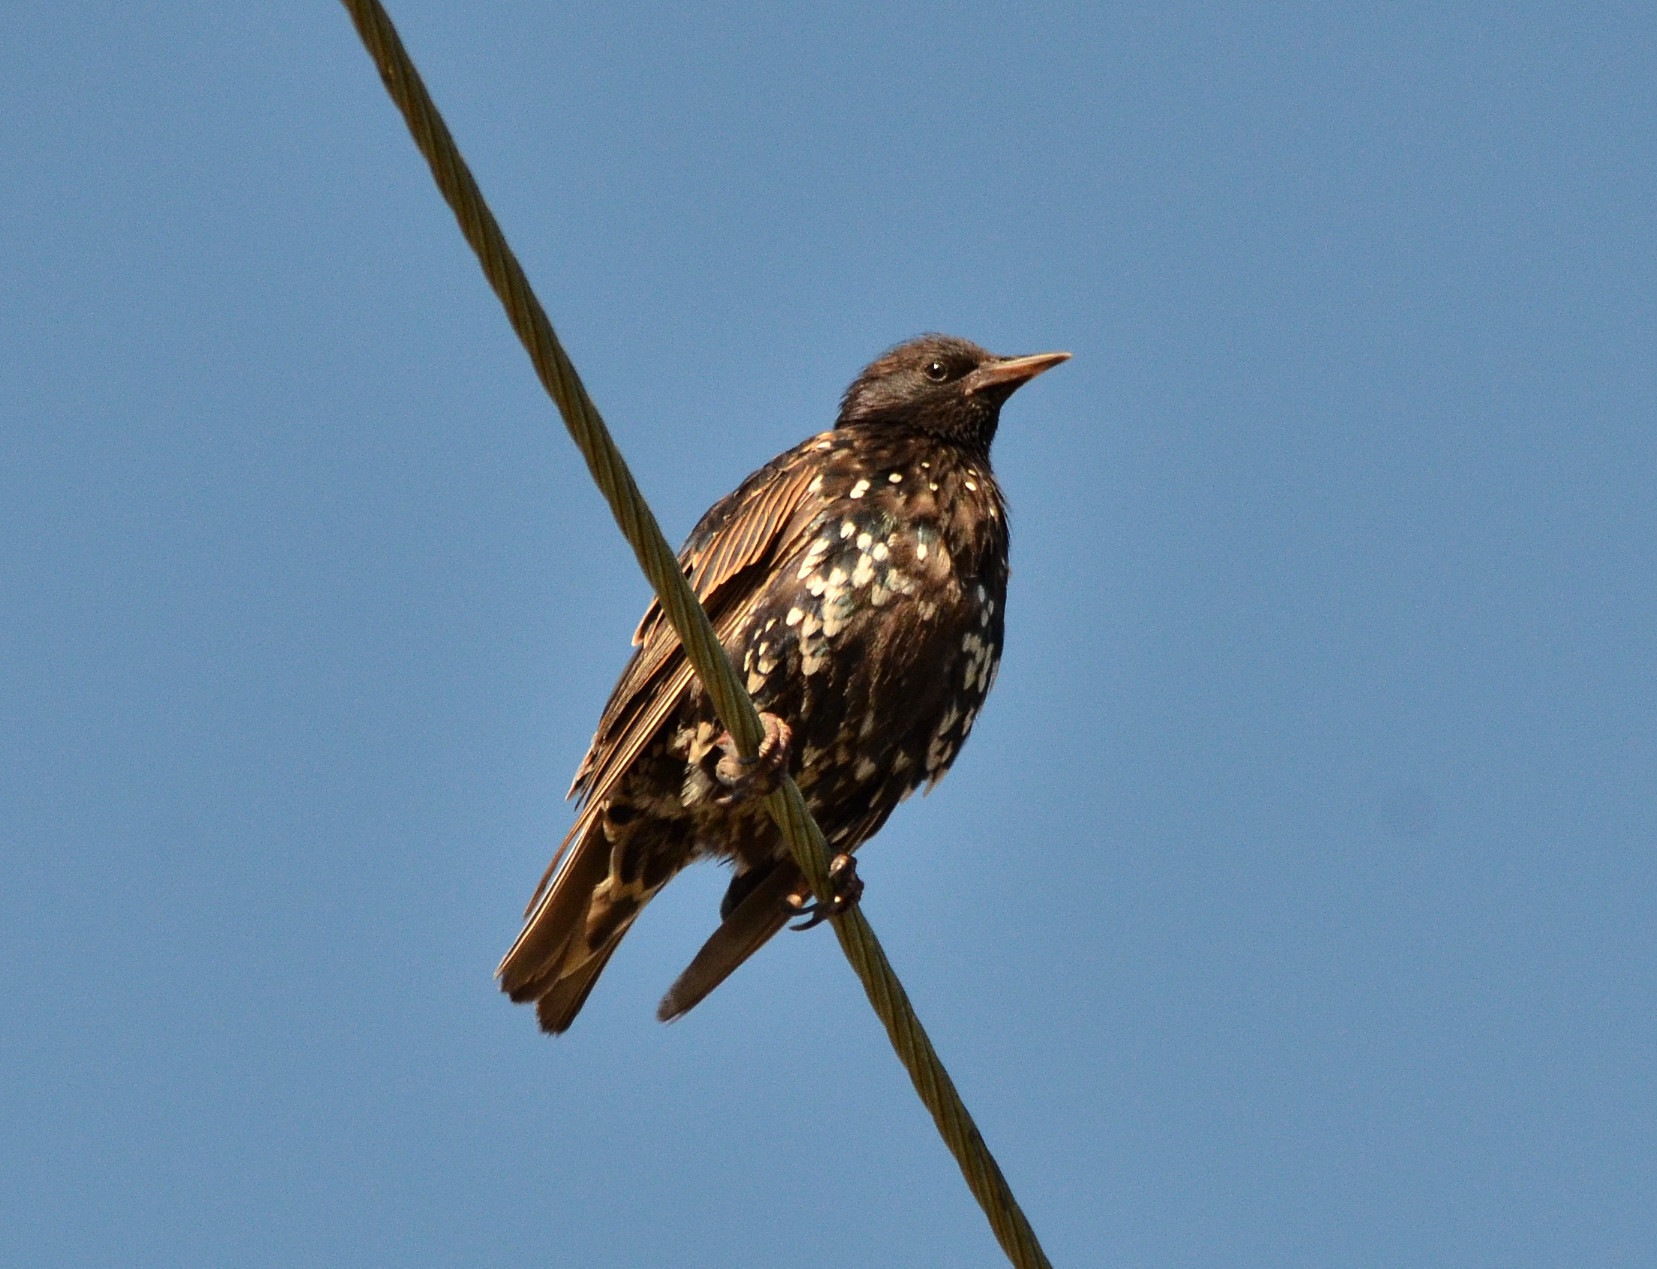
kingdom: Animalia
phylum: Chordata
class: Aves
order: Passeriformes
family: Sturnidae
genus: Sturnus
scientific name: Sturnus vulgaris
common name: Common starling
